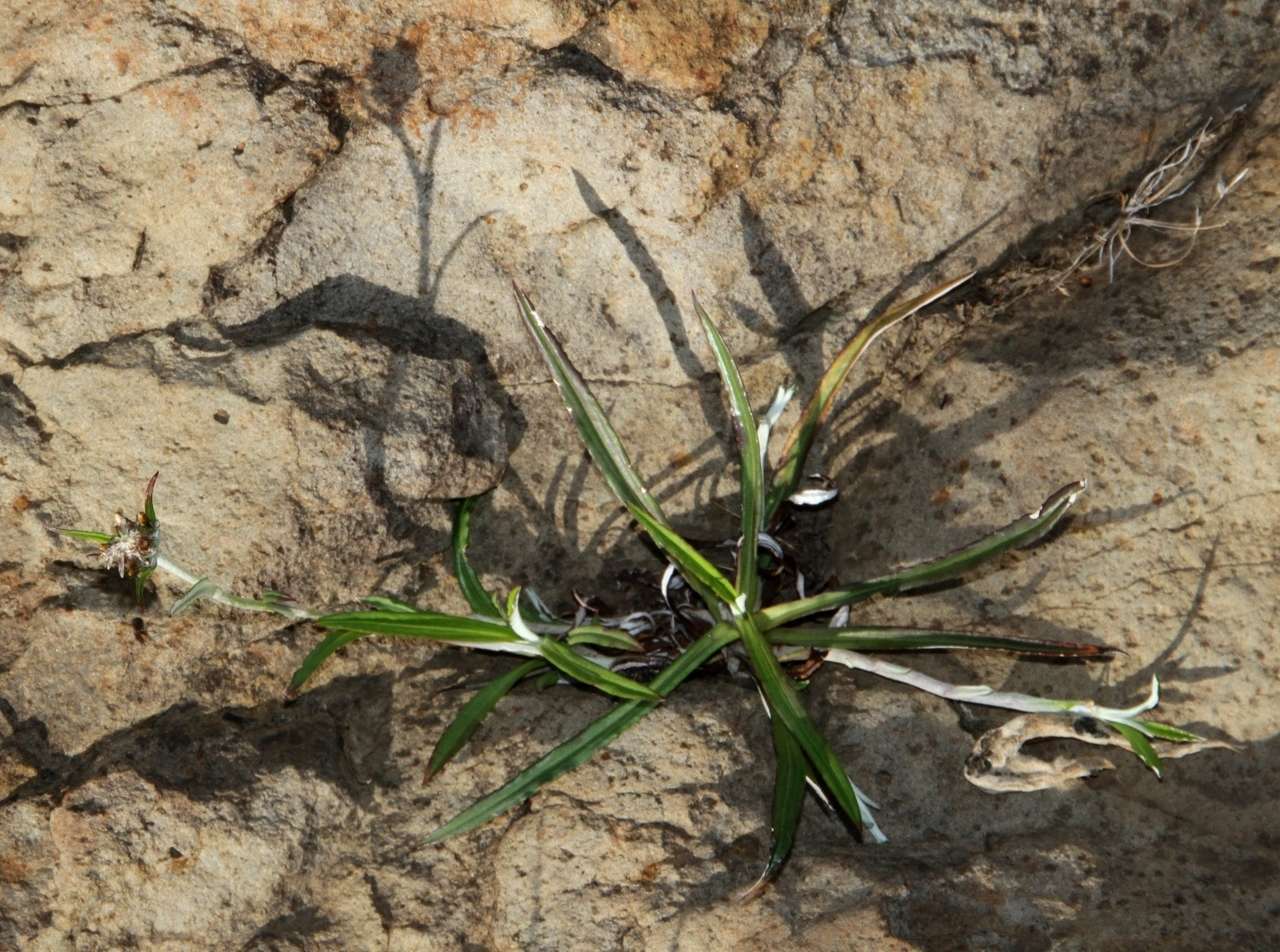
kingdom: Plantae
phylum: Tracheophyta
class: Magnoliopsida
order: Asterales
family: Asteraceae
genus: Euchiton
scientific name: Euchiton involucratus
